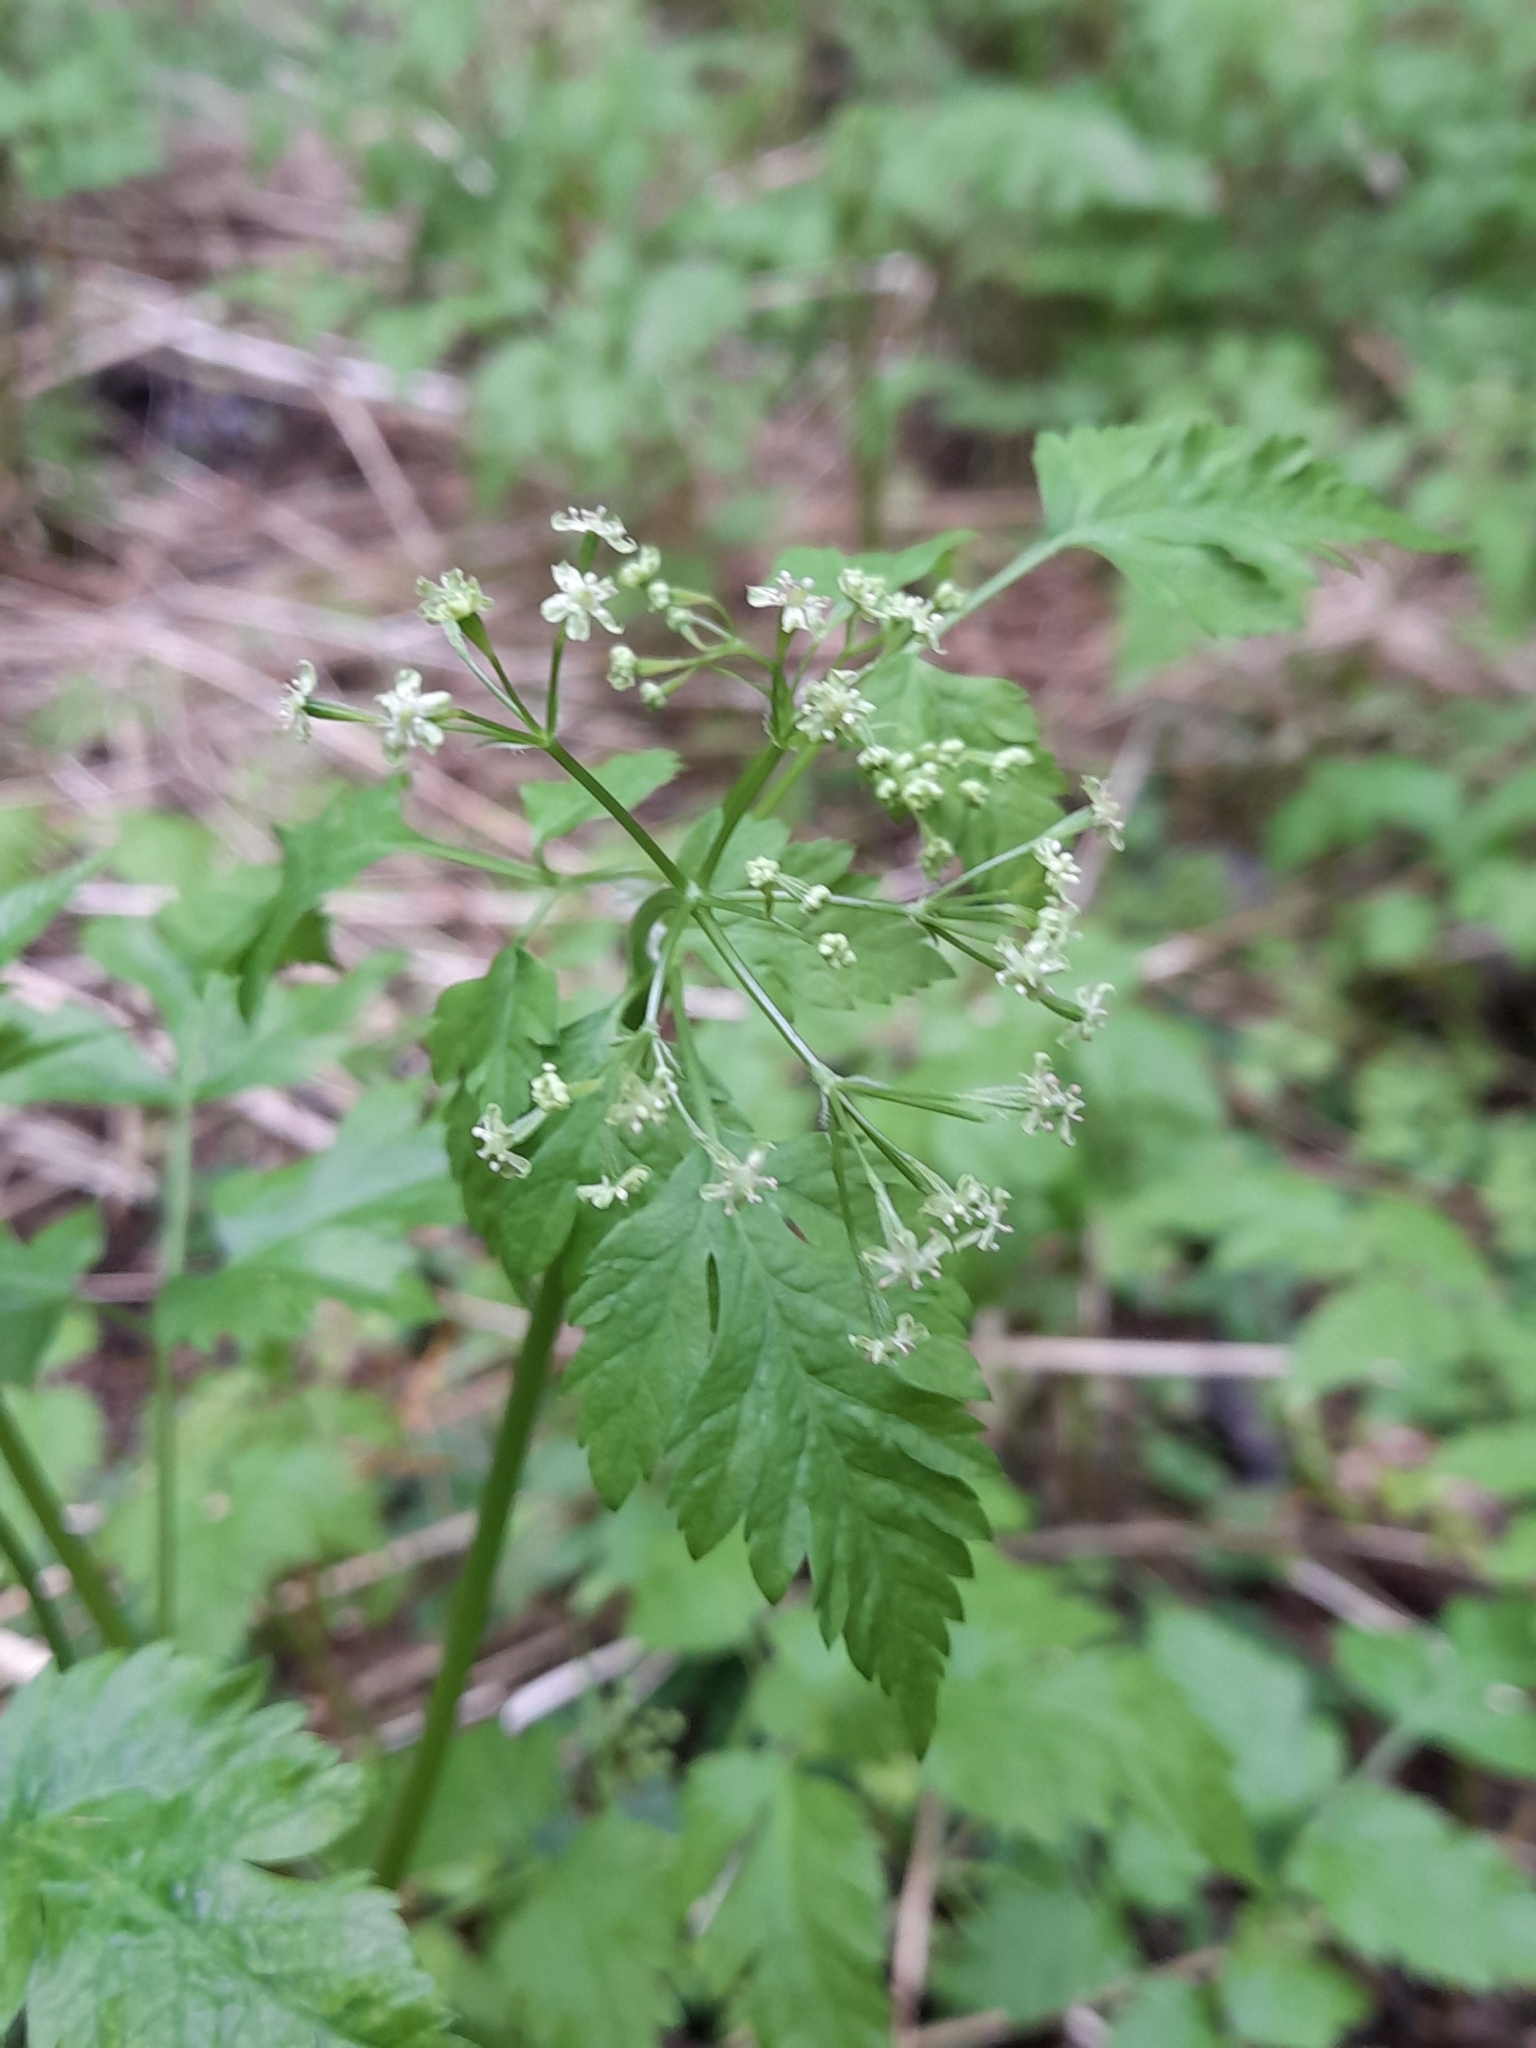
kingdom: Plantae
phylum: Tracheophyta
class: Magnoliopsida
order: Apiales
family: Apiaceae
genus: Osmorhiza
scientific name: Osmorhiza berteroi
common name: Mountain sweet cicely
